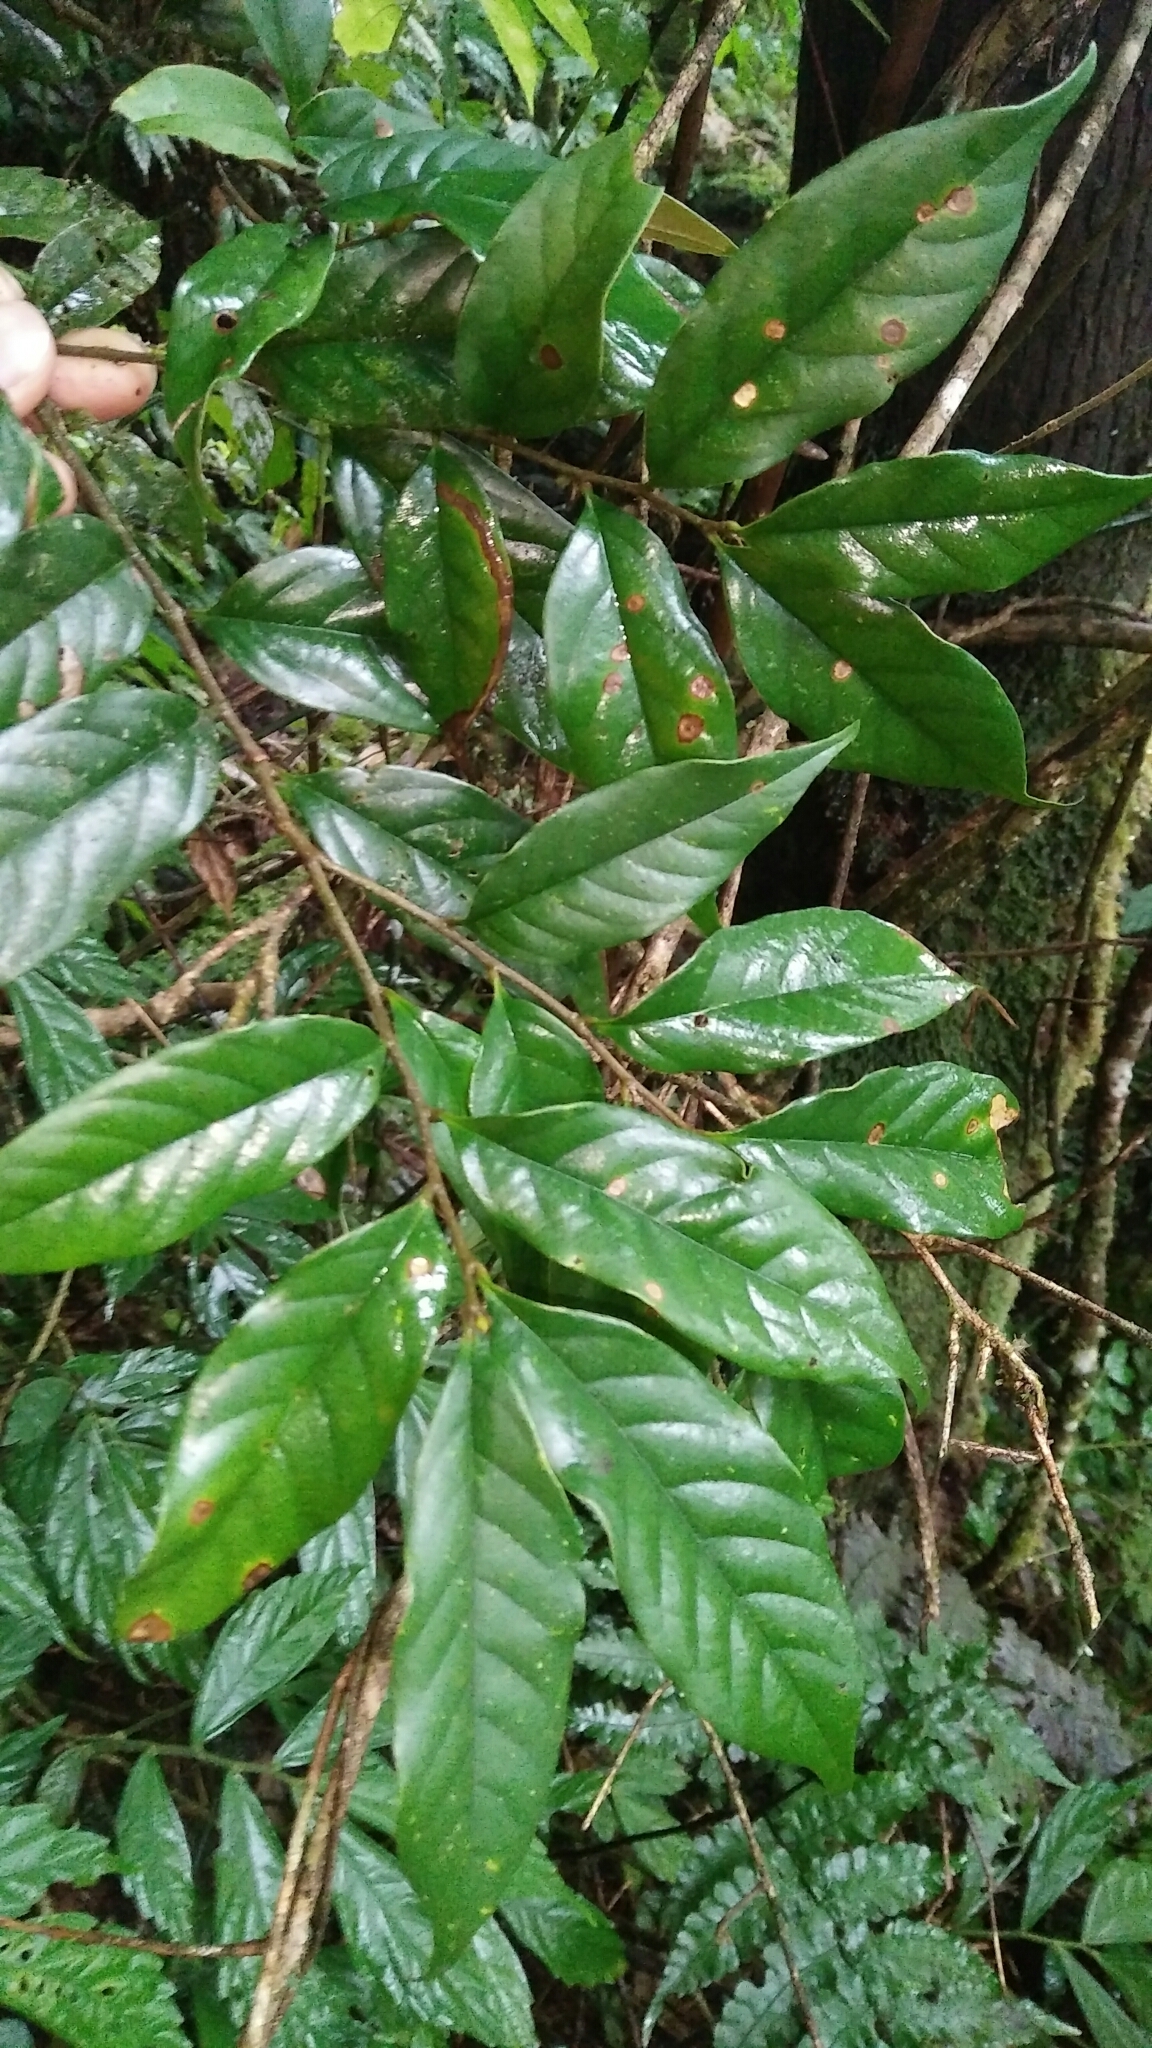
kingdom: Plantae
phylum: Tracheophyta
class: Magnoliopsida
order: Fagales
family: Fagaceae
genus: Castanopsis
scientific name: Castanopsis faberi
